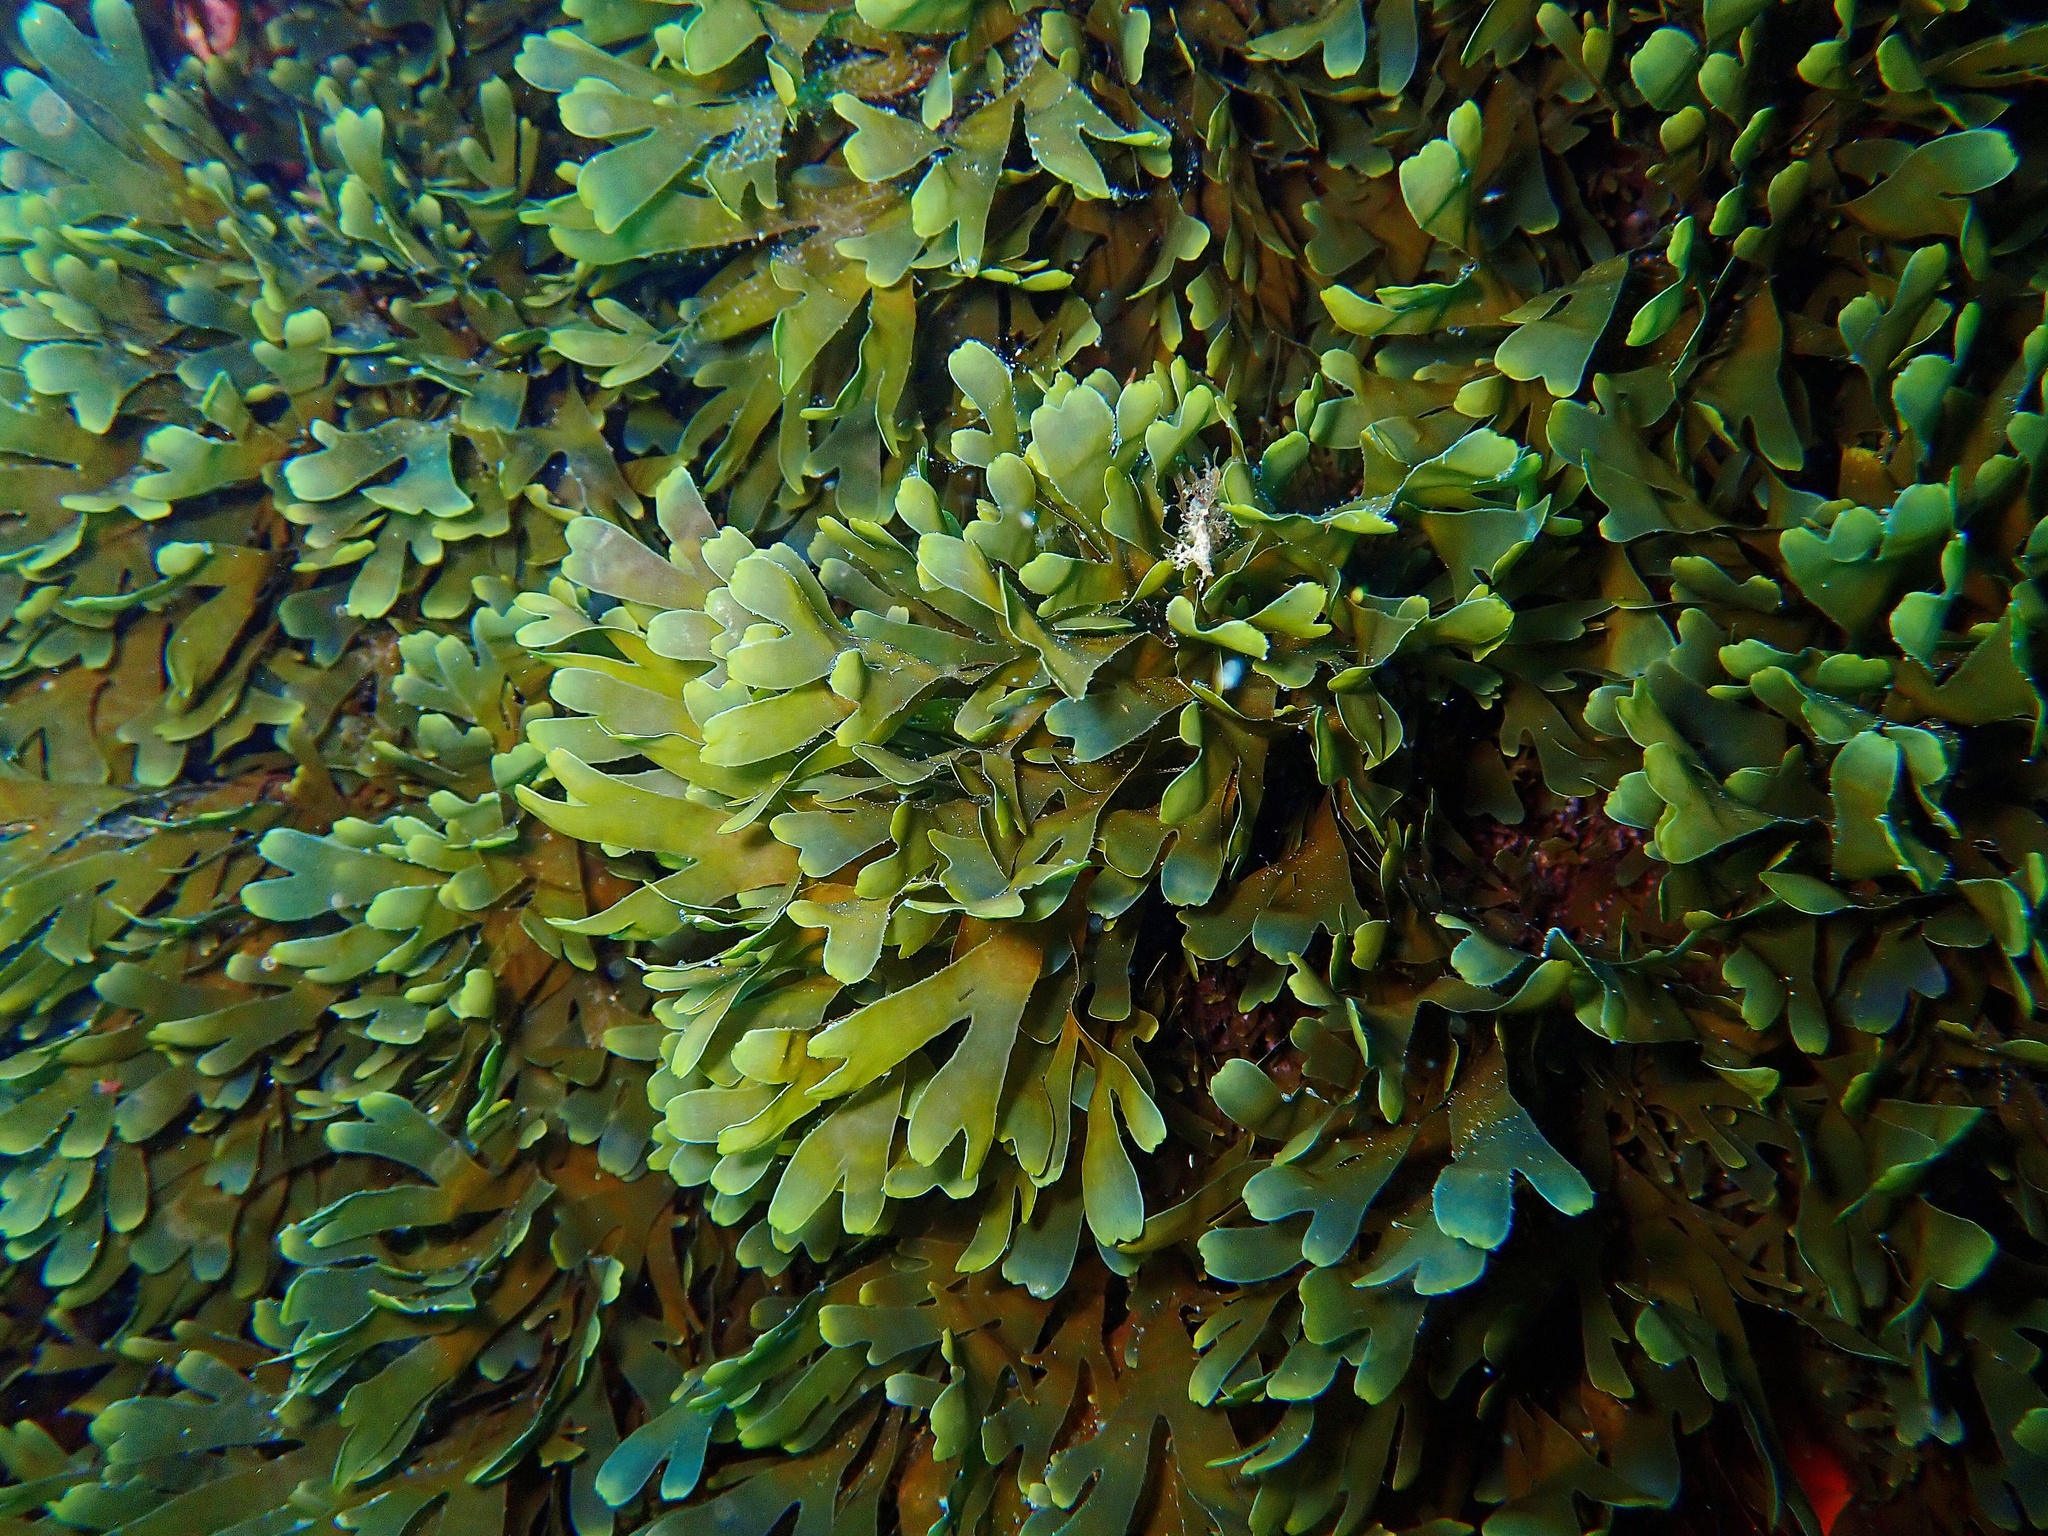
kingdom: Chromista
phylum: Ochrophyta
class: Phaeophyceae
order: Dictyotales
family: Dictyotaceae
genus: Rugulopteryx
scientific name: Rugulopteryx okamurae
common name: Algae stomp
